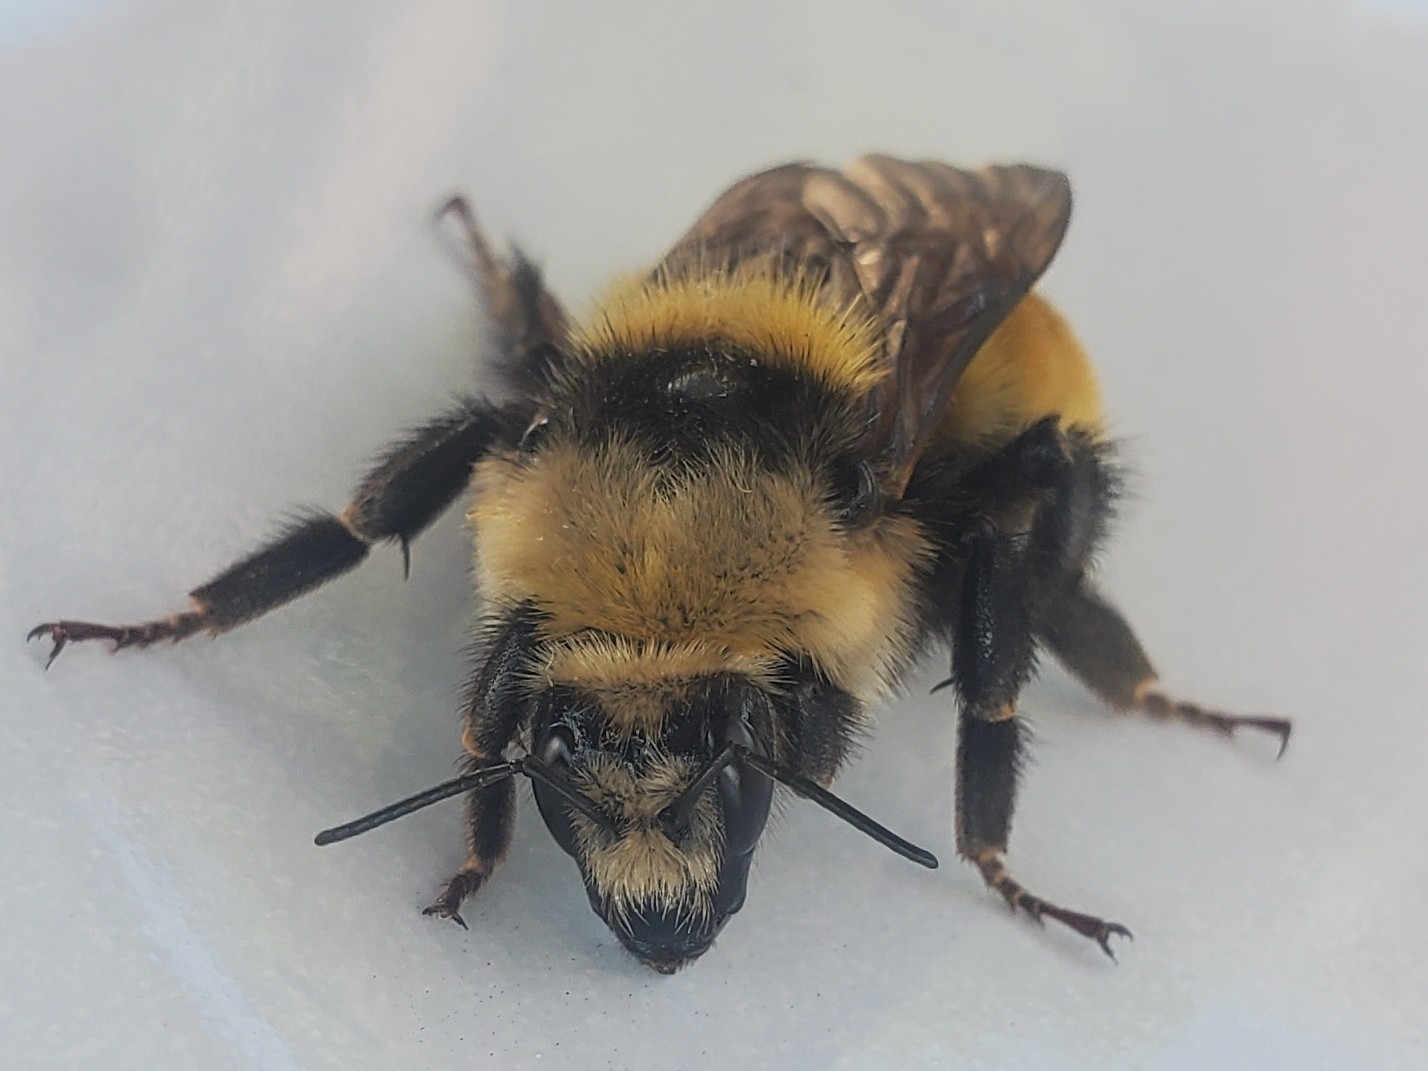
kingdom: Animalia
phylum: Arthropoda
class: Insecta
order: Hymenoptera
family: Apidae
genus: Bombus
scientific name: Bombus appositus
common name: White-shouldered bumble bee
